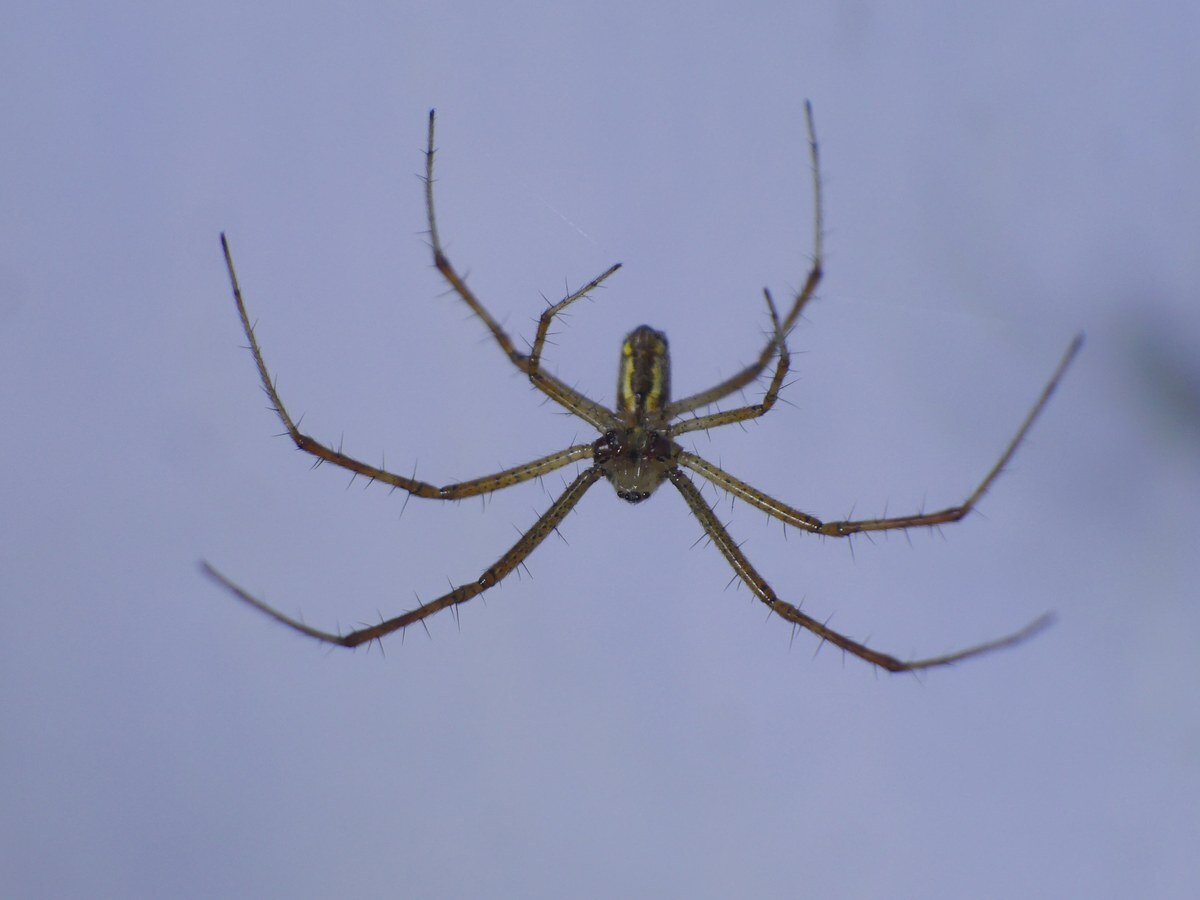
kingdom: Animalia
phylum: Arthropoda
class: Arachnida
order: Araneae
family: Araneidae
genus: Argiope
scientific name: Argiope bruennichi
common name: Wasp spider
